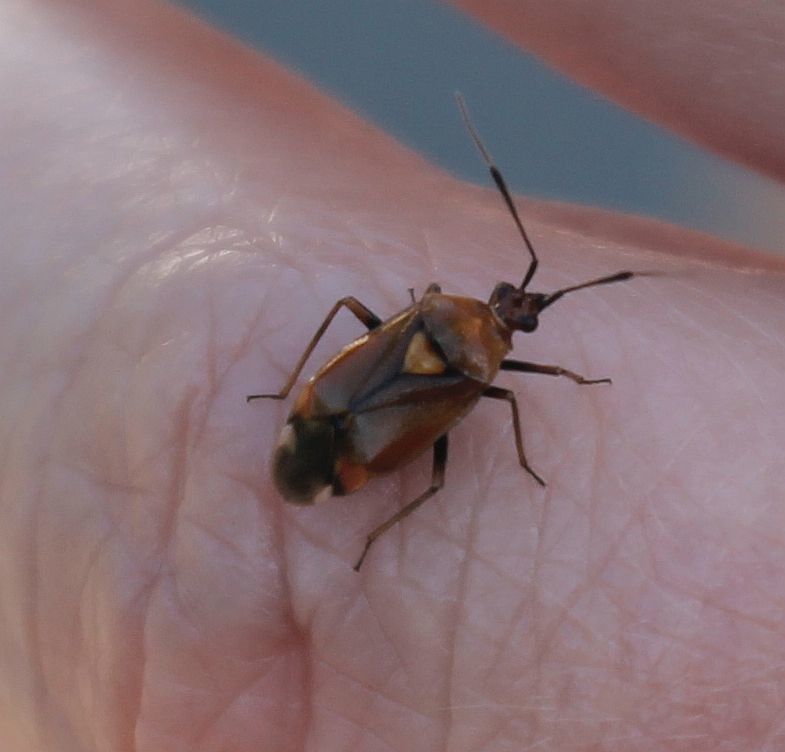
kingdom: Animalia
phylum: Arthropoda
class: Insecta
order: Hemiptera
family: Miridae
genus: Deraeocoris
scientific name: Deraeocoris ruber
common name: Plant bug
